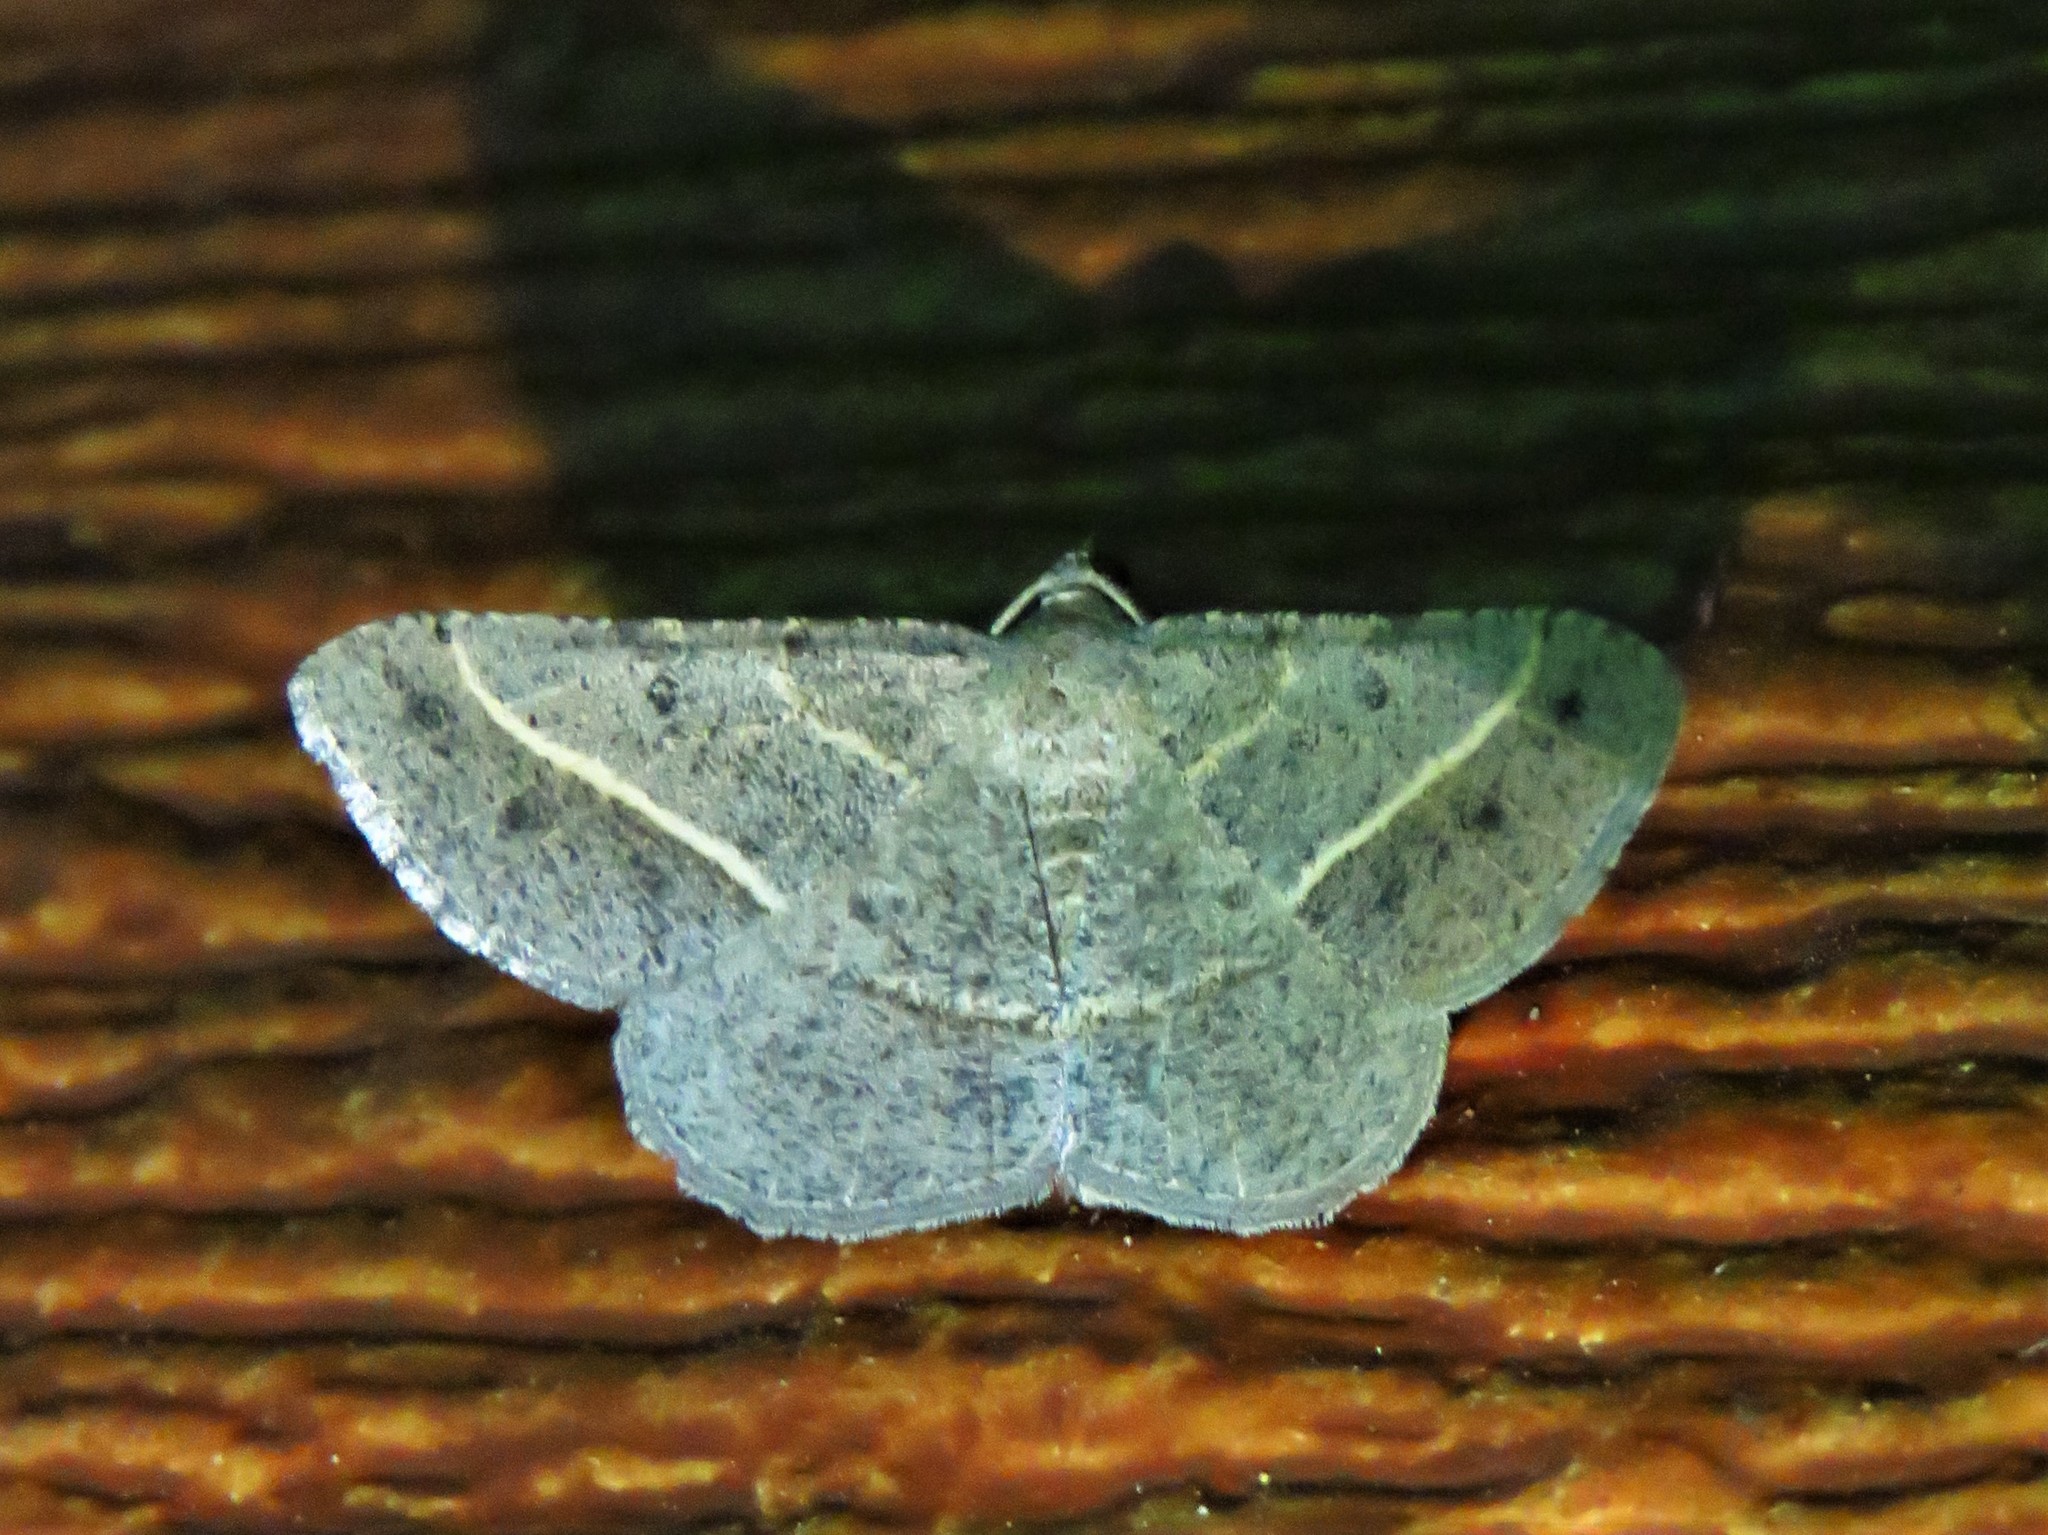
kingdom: Animalia
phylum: Arthropoda
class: Insecta
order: Lepidoptera
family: Geometridae
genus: Digrammia
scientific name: Digrammia irrorata
